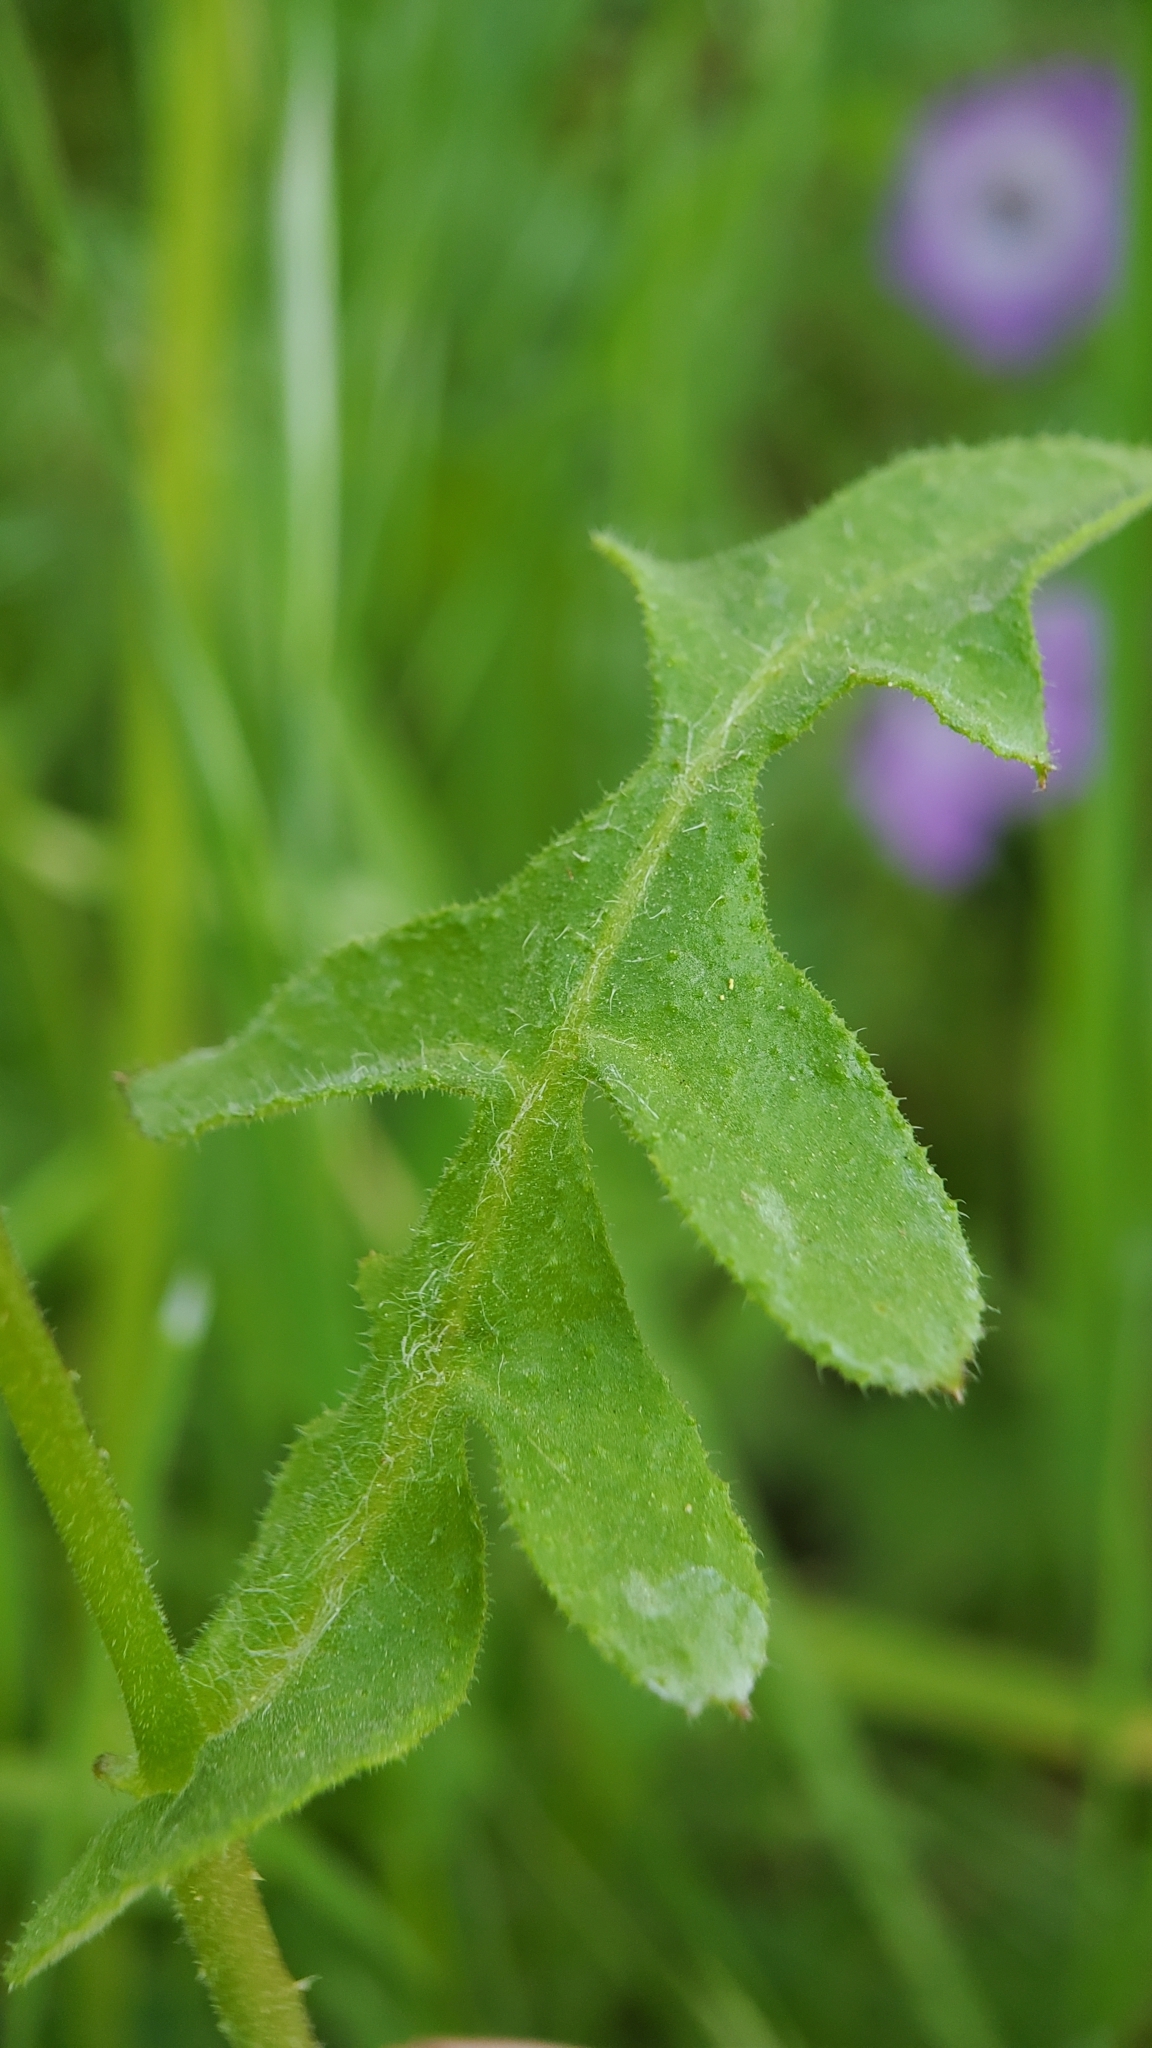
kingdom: Plantae
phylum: Tracheophyta
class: Magnoliopsida
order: Boraginales
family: Hydrophyllaceae
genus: Pholistoma
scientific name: Pholistoma auritum
